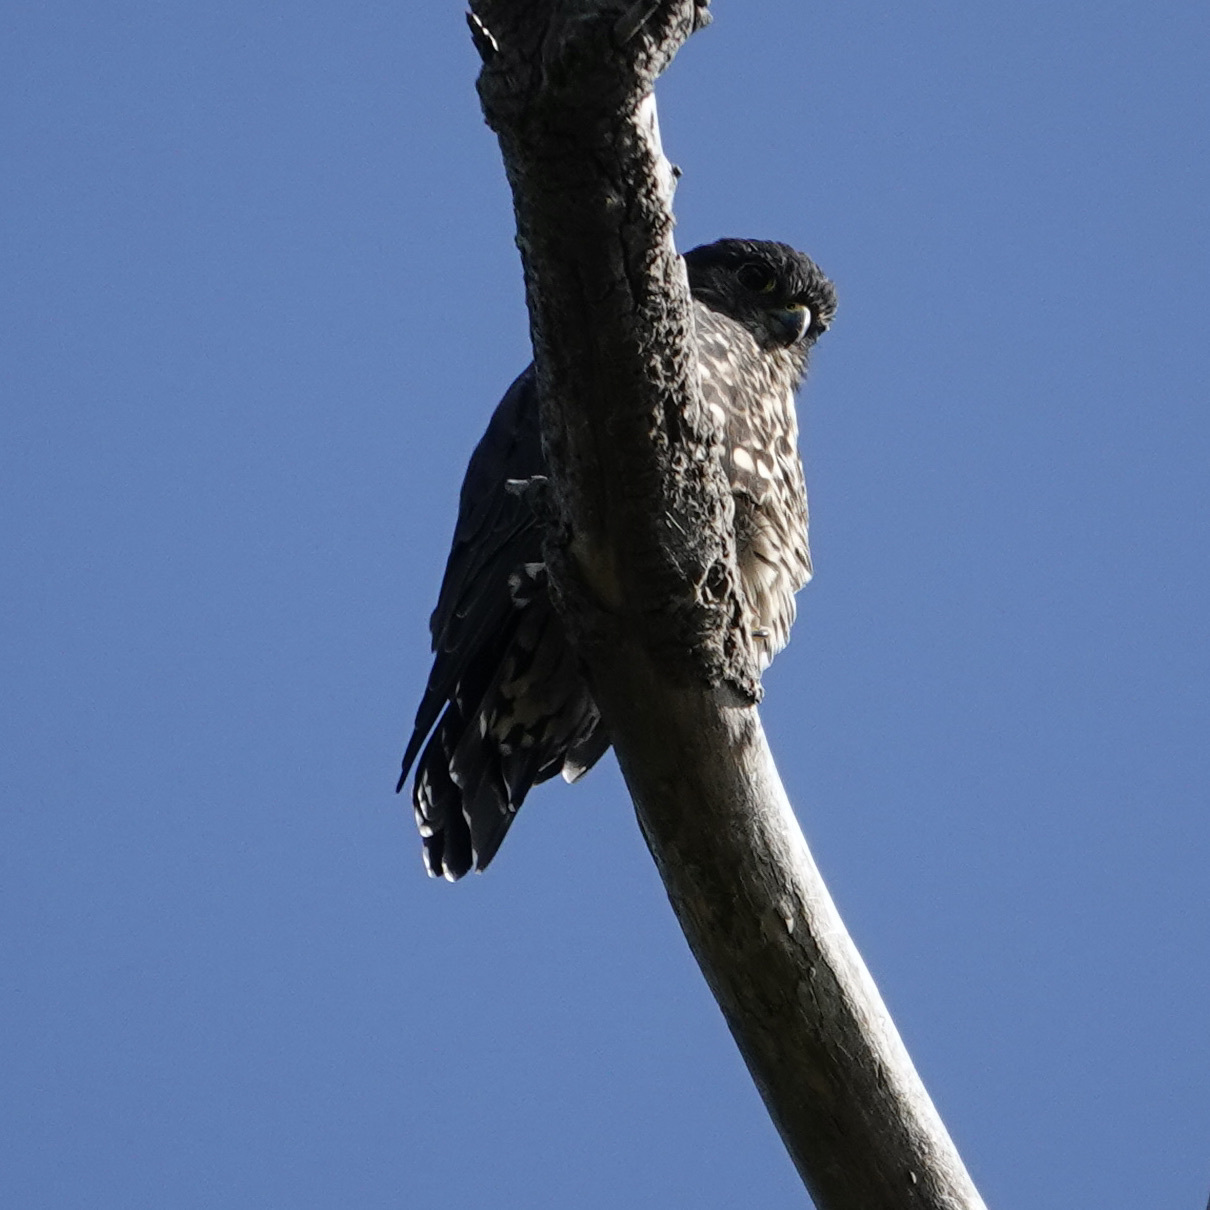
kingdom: Animalia
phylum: Chordata
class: Aves
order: Falconiformes
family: Falconidae
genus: Falco
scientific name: Falco columbarius
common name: Merlin
